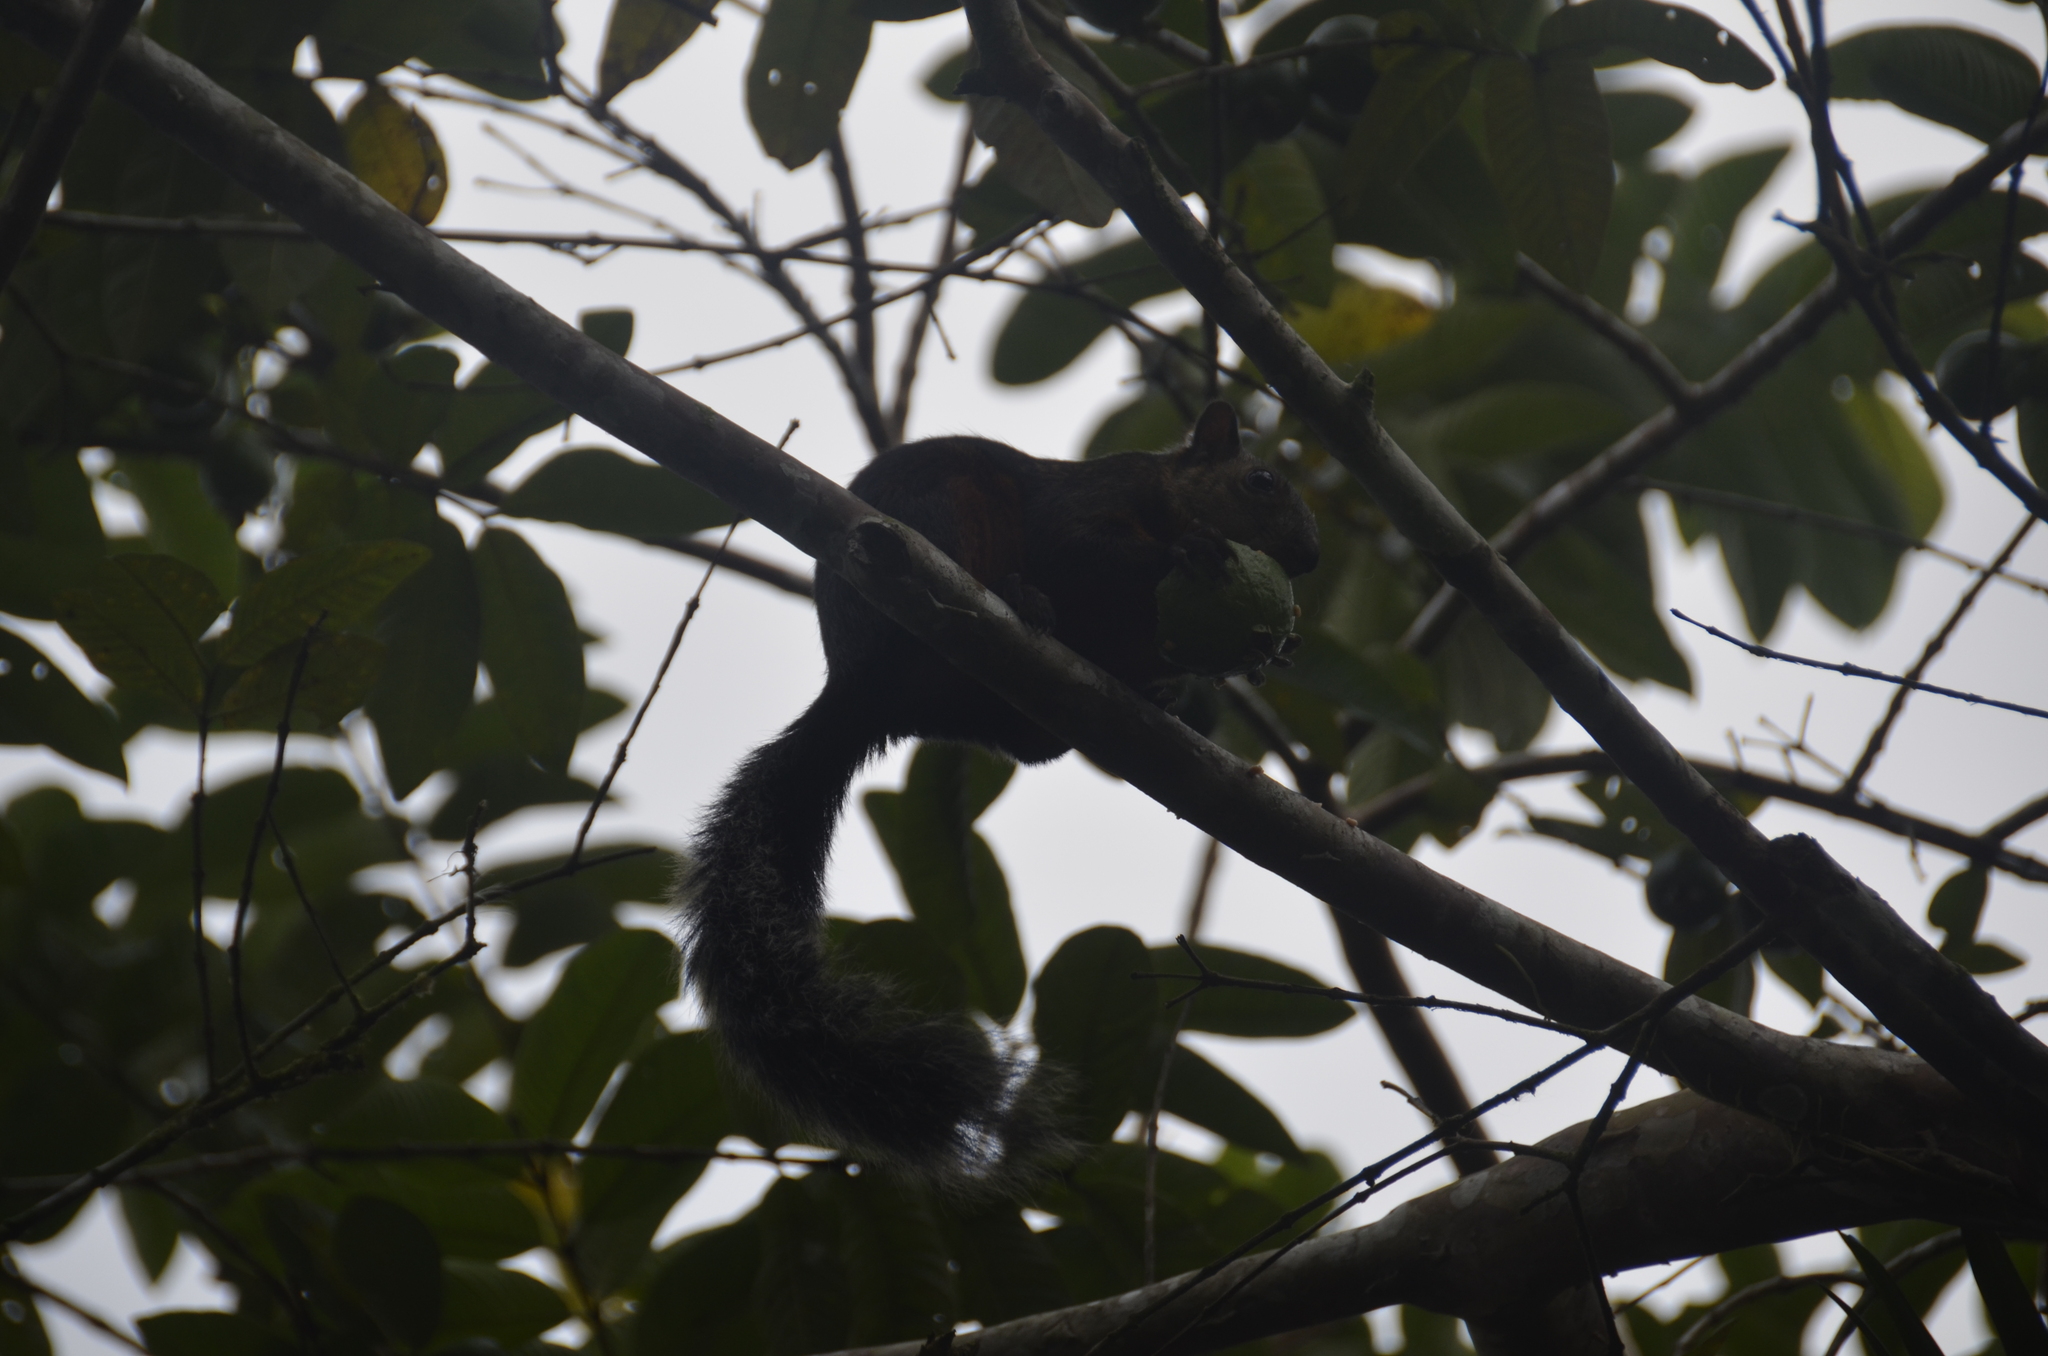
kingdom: Animalia
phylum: Chordata
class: Mammalia
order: Rodentia
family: Sciuridae
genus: Sciurus
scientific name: Sciurus variegatoides
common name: Variegated squirrel
